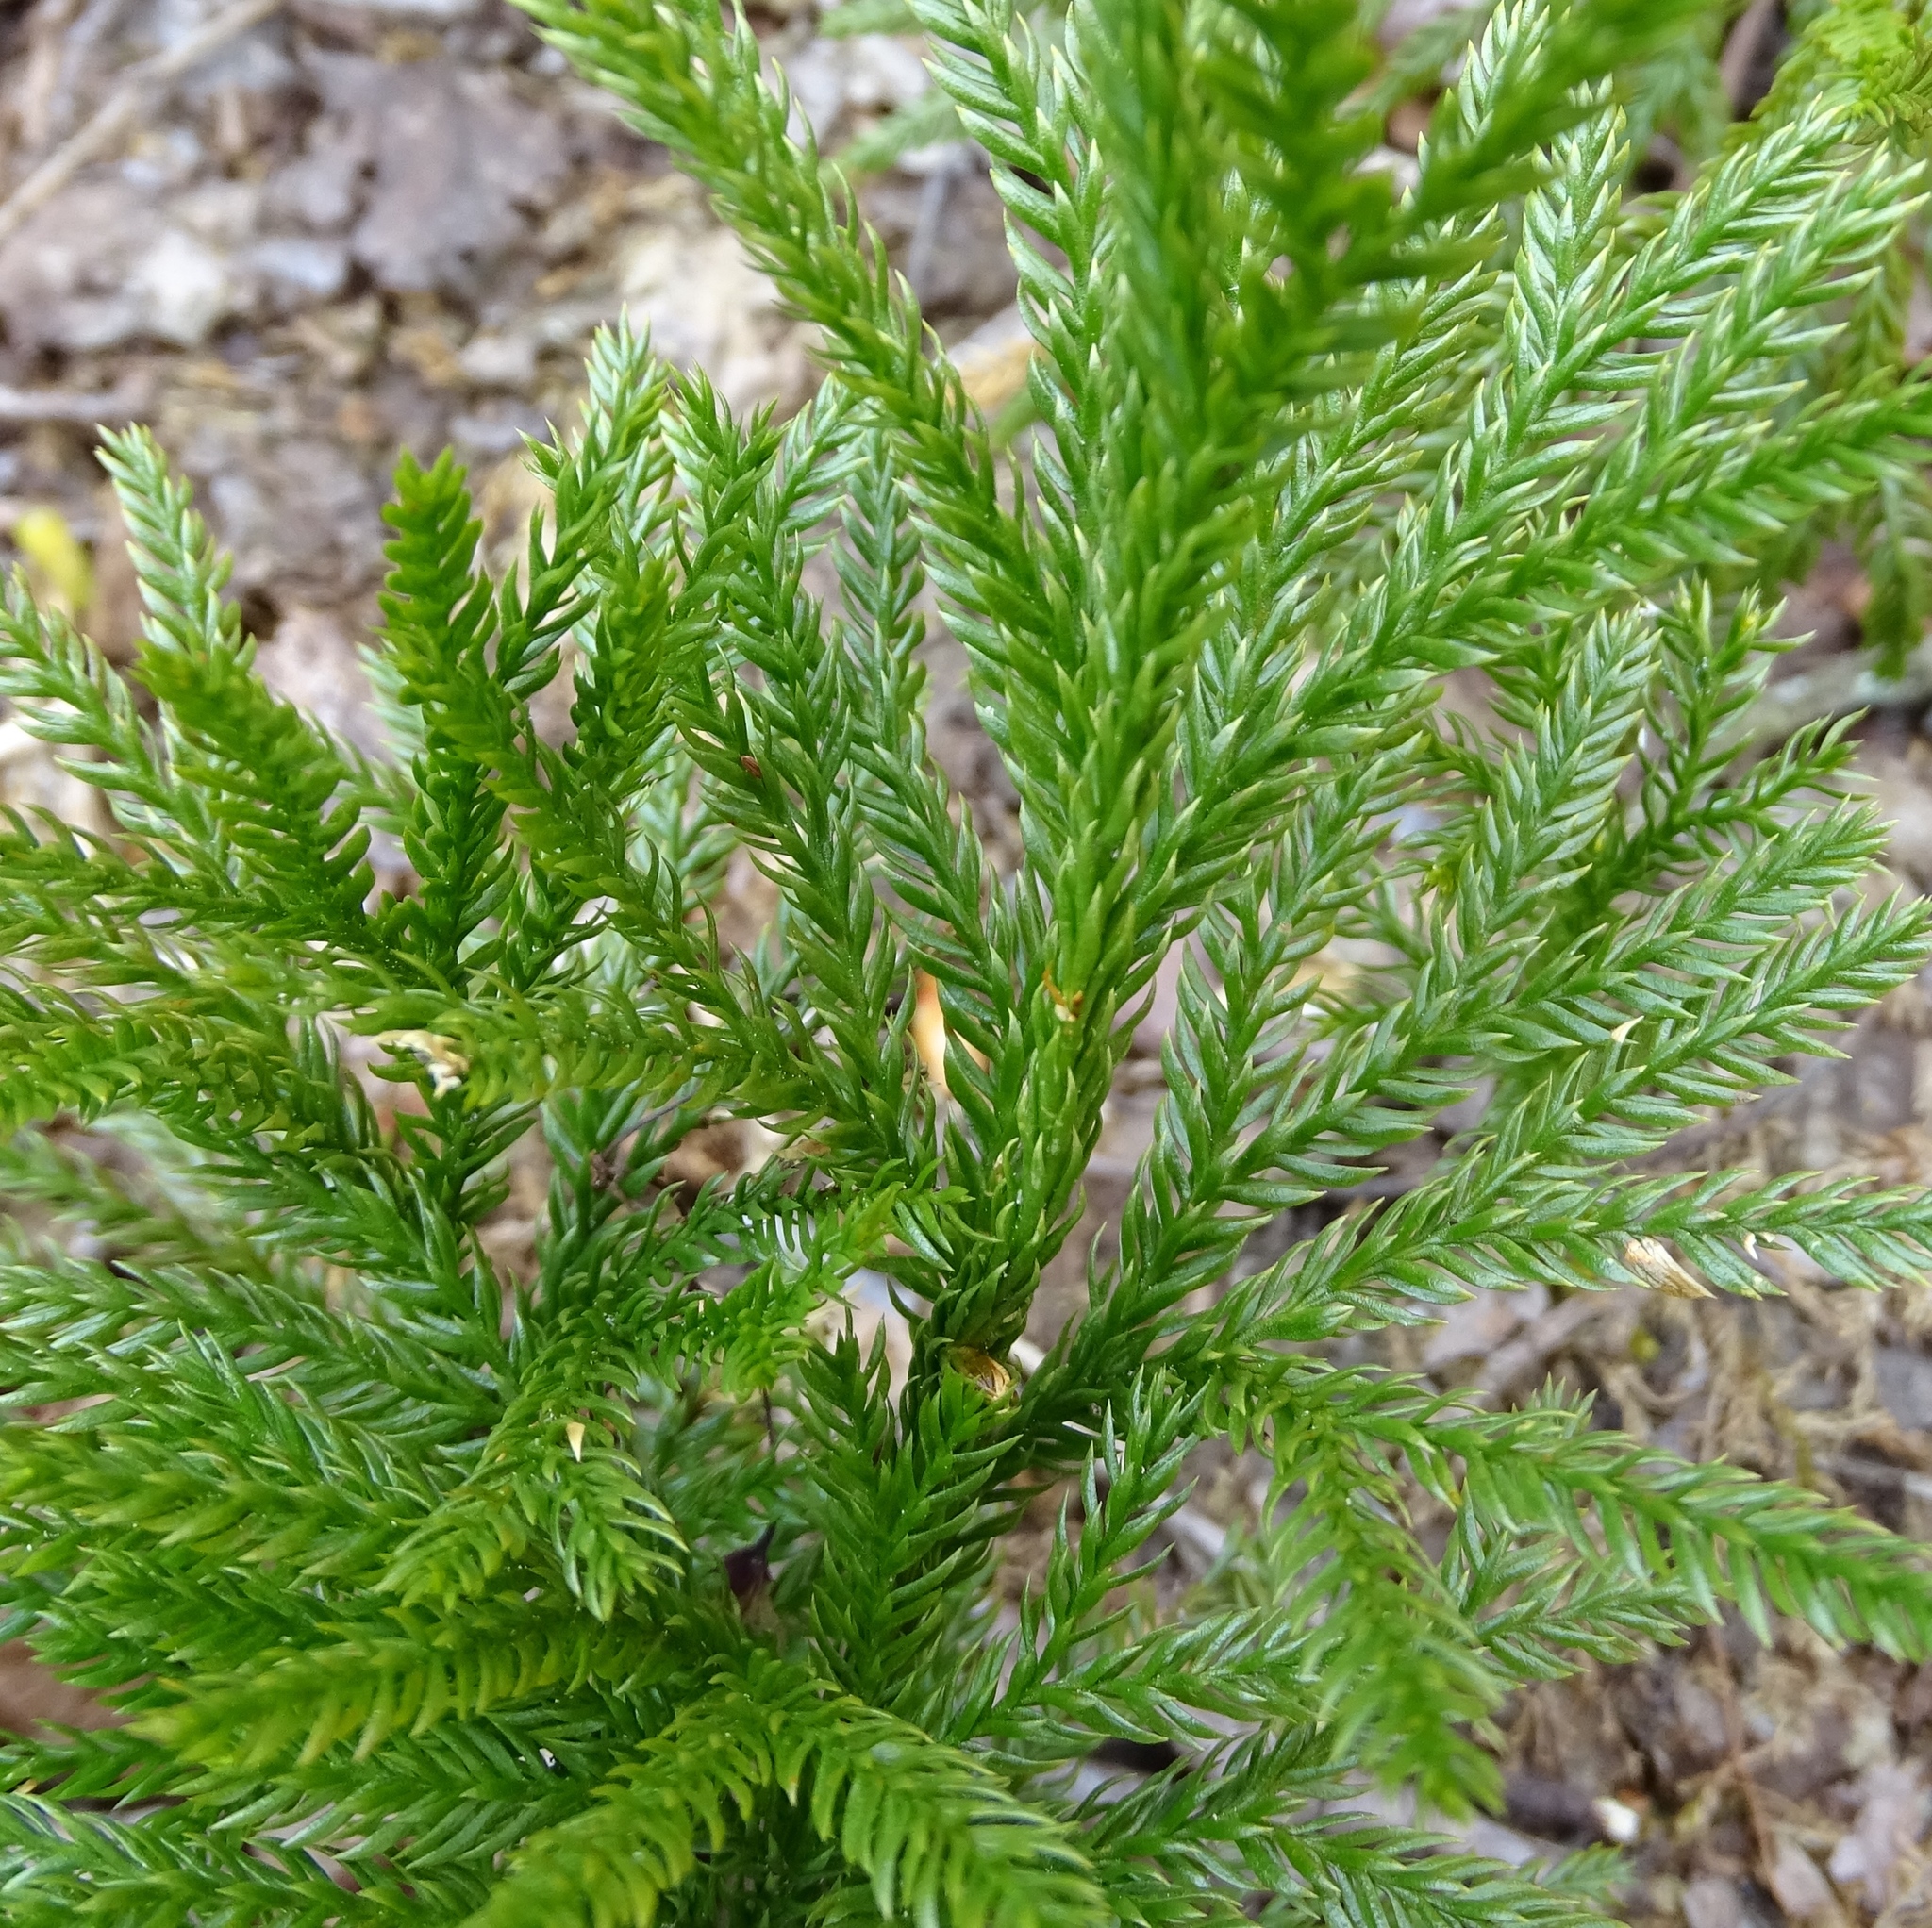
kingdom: Plantae
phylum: Tracheophyta
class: Lycopodiopsida
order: Lycopodiales
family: Lycopodiaceae
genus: Dendrolycopodium
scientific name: Dendrolycopodium obscurum
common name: Common ground-pine
